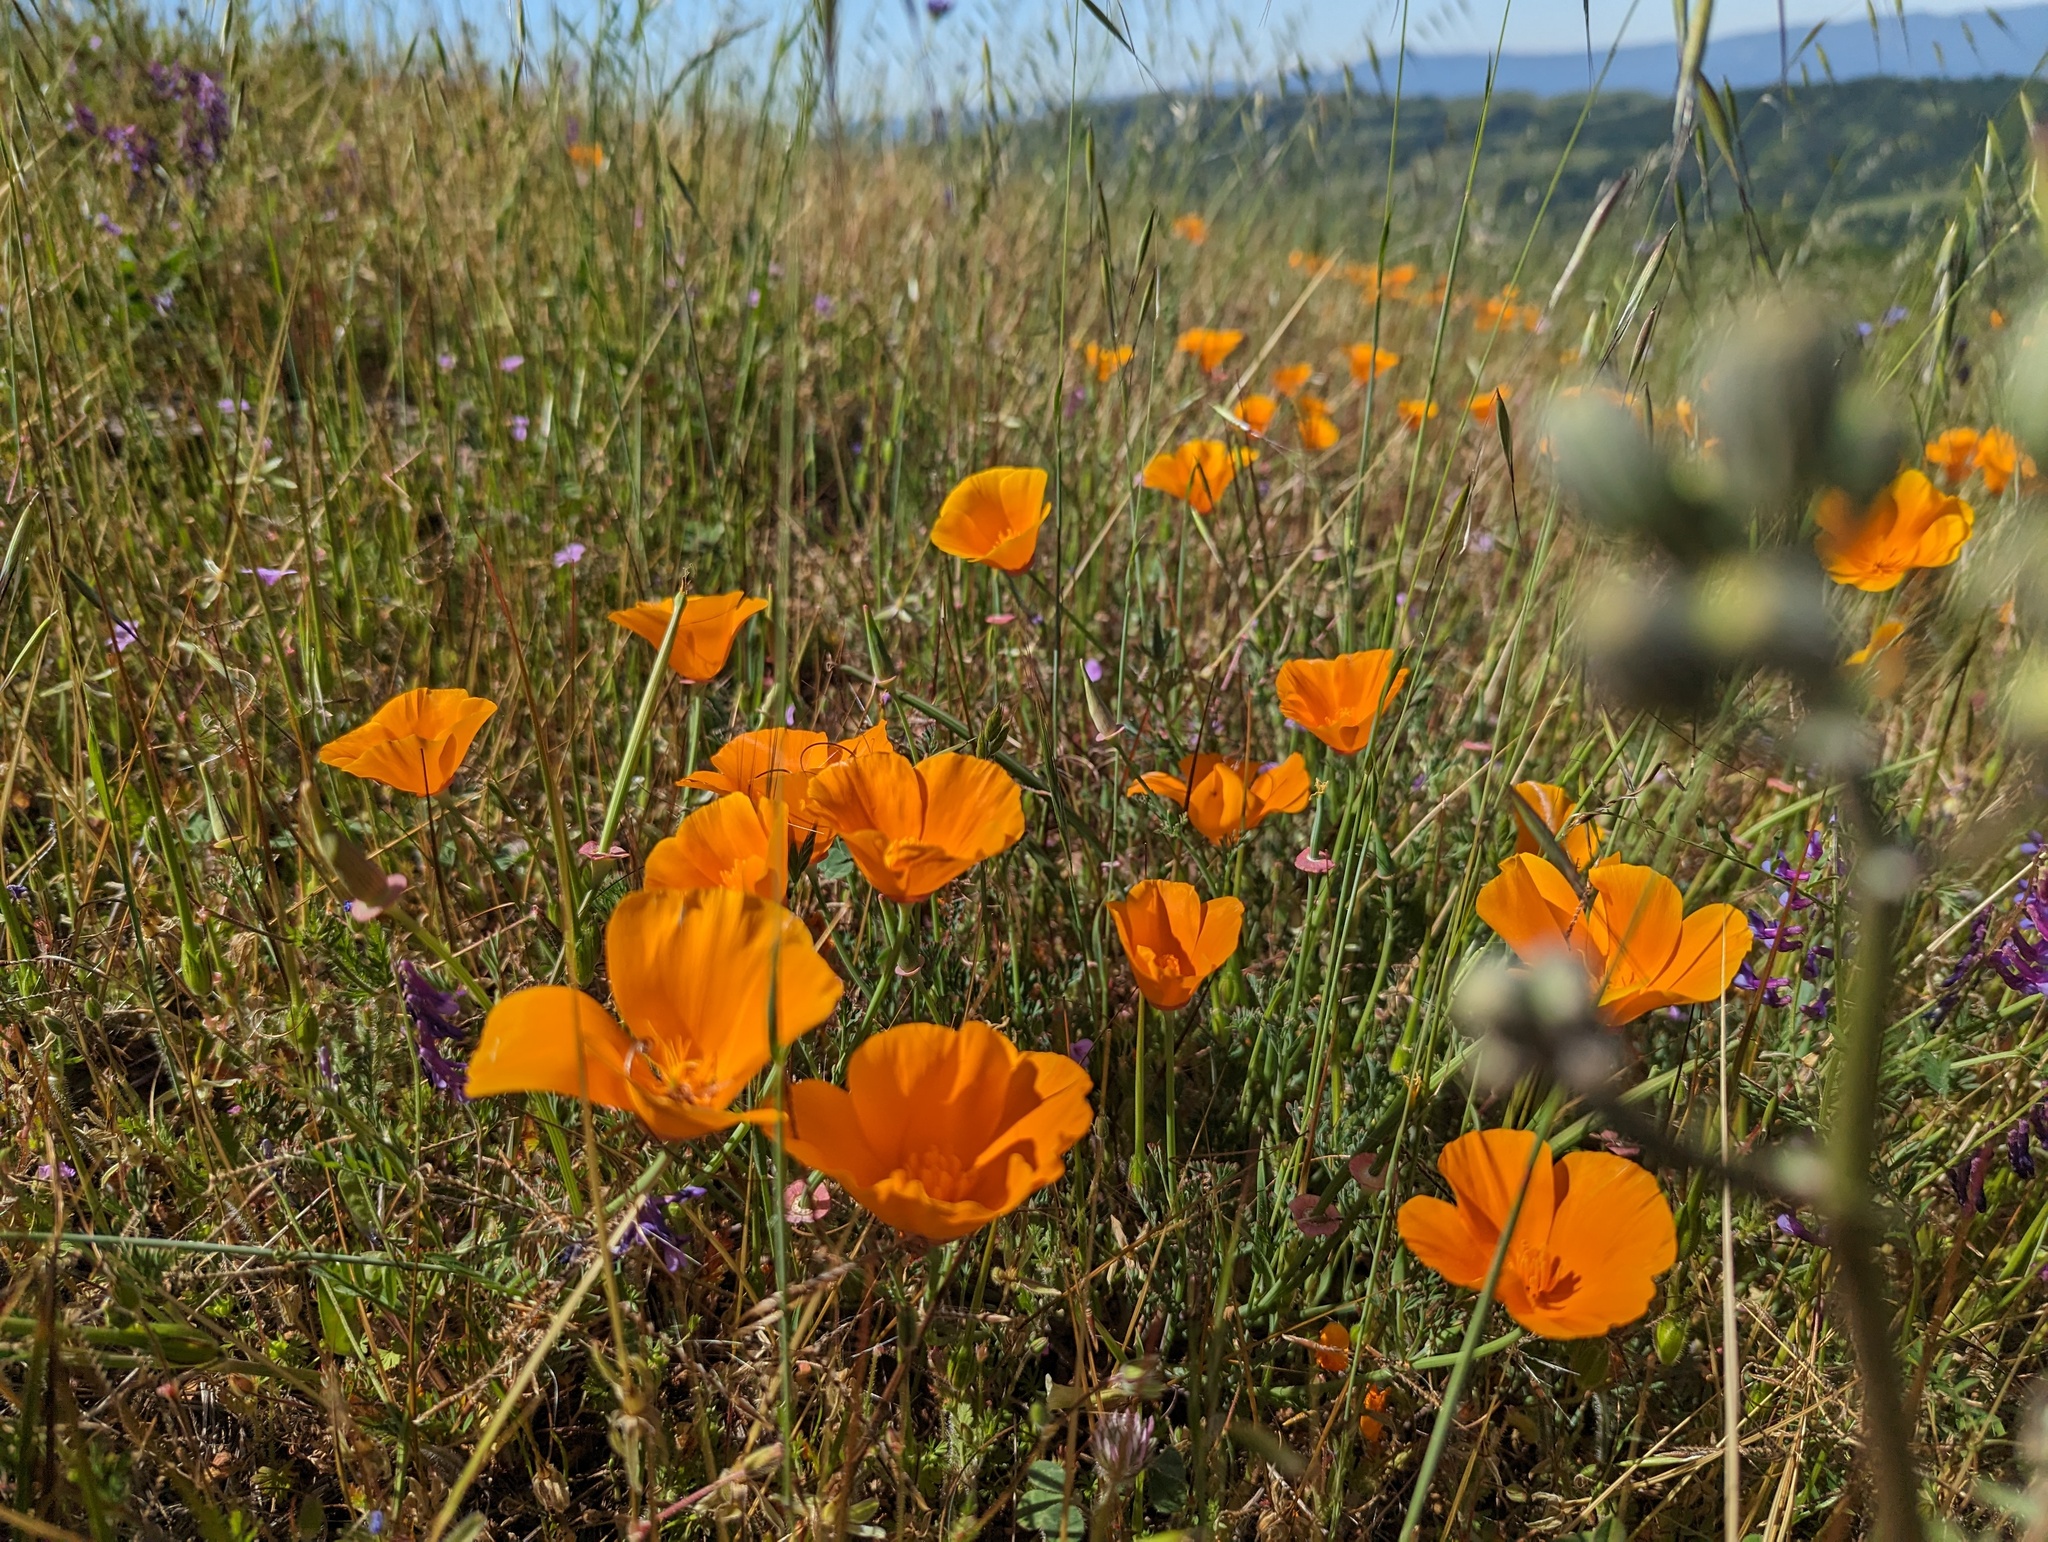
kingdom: Plantae
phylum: Tracheophyta
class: Magnoliopsida
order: Ranunculales
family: Papaveraceae
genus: Eschscholzia
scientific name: Eschscholzia californica
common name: California poppy
